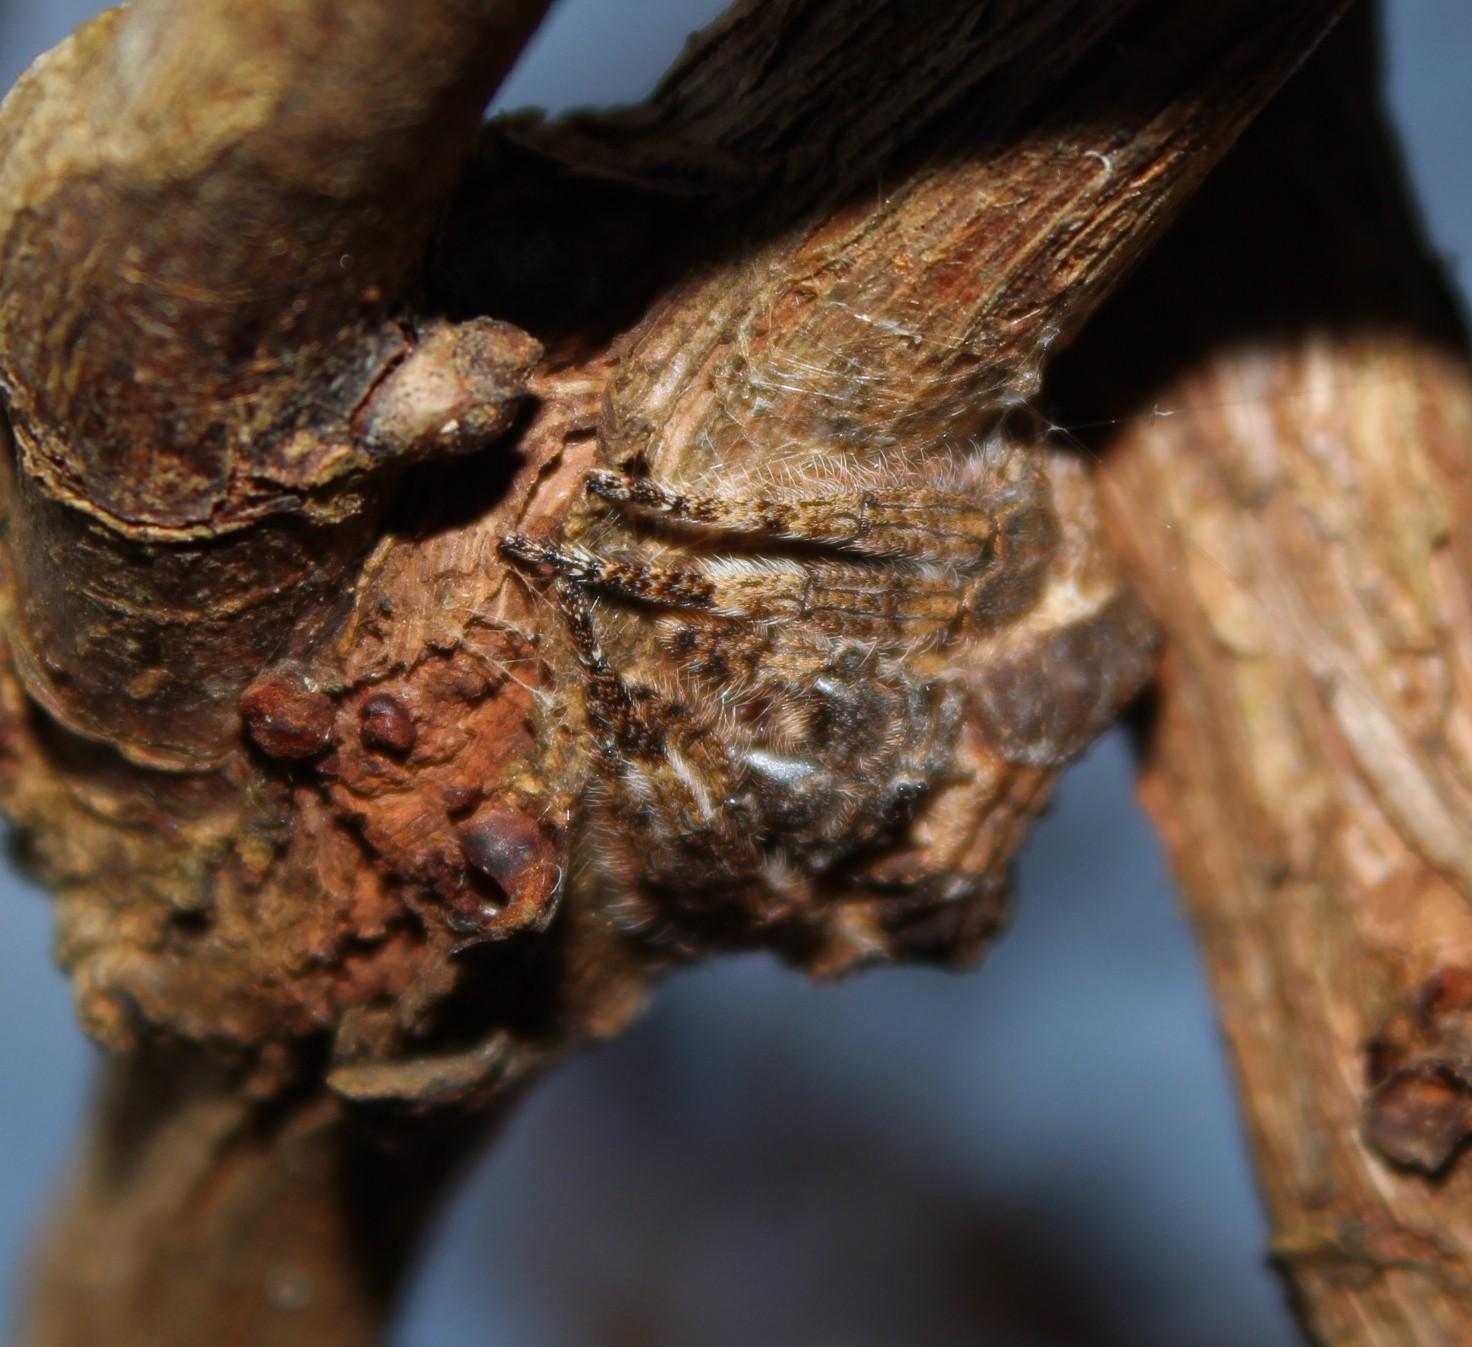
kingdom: Animalia
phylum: Arthropoda
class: Arachnida
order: Araneae
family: Araneidae
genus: Caerostris
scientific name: Caerostris sexcuspidata
